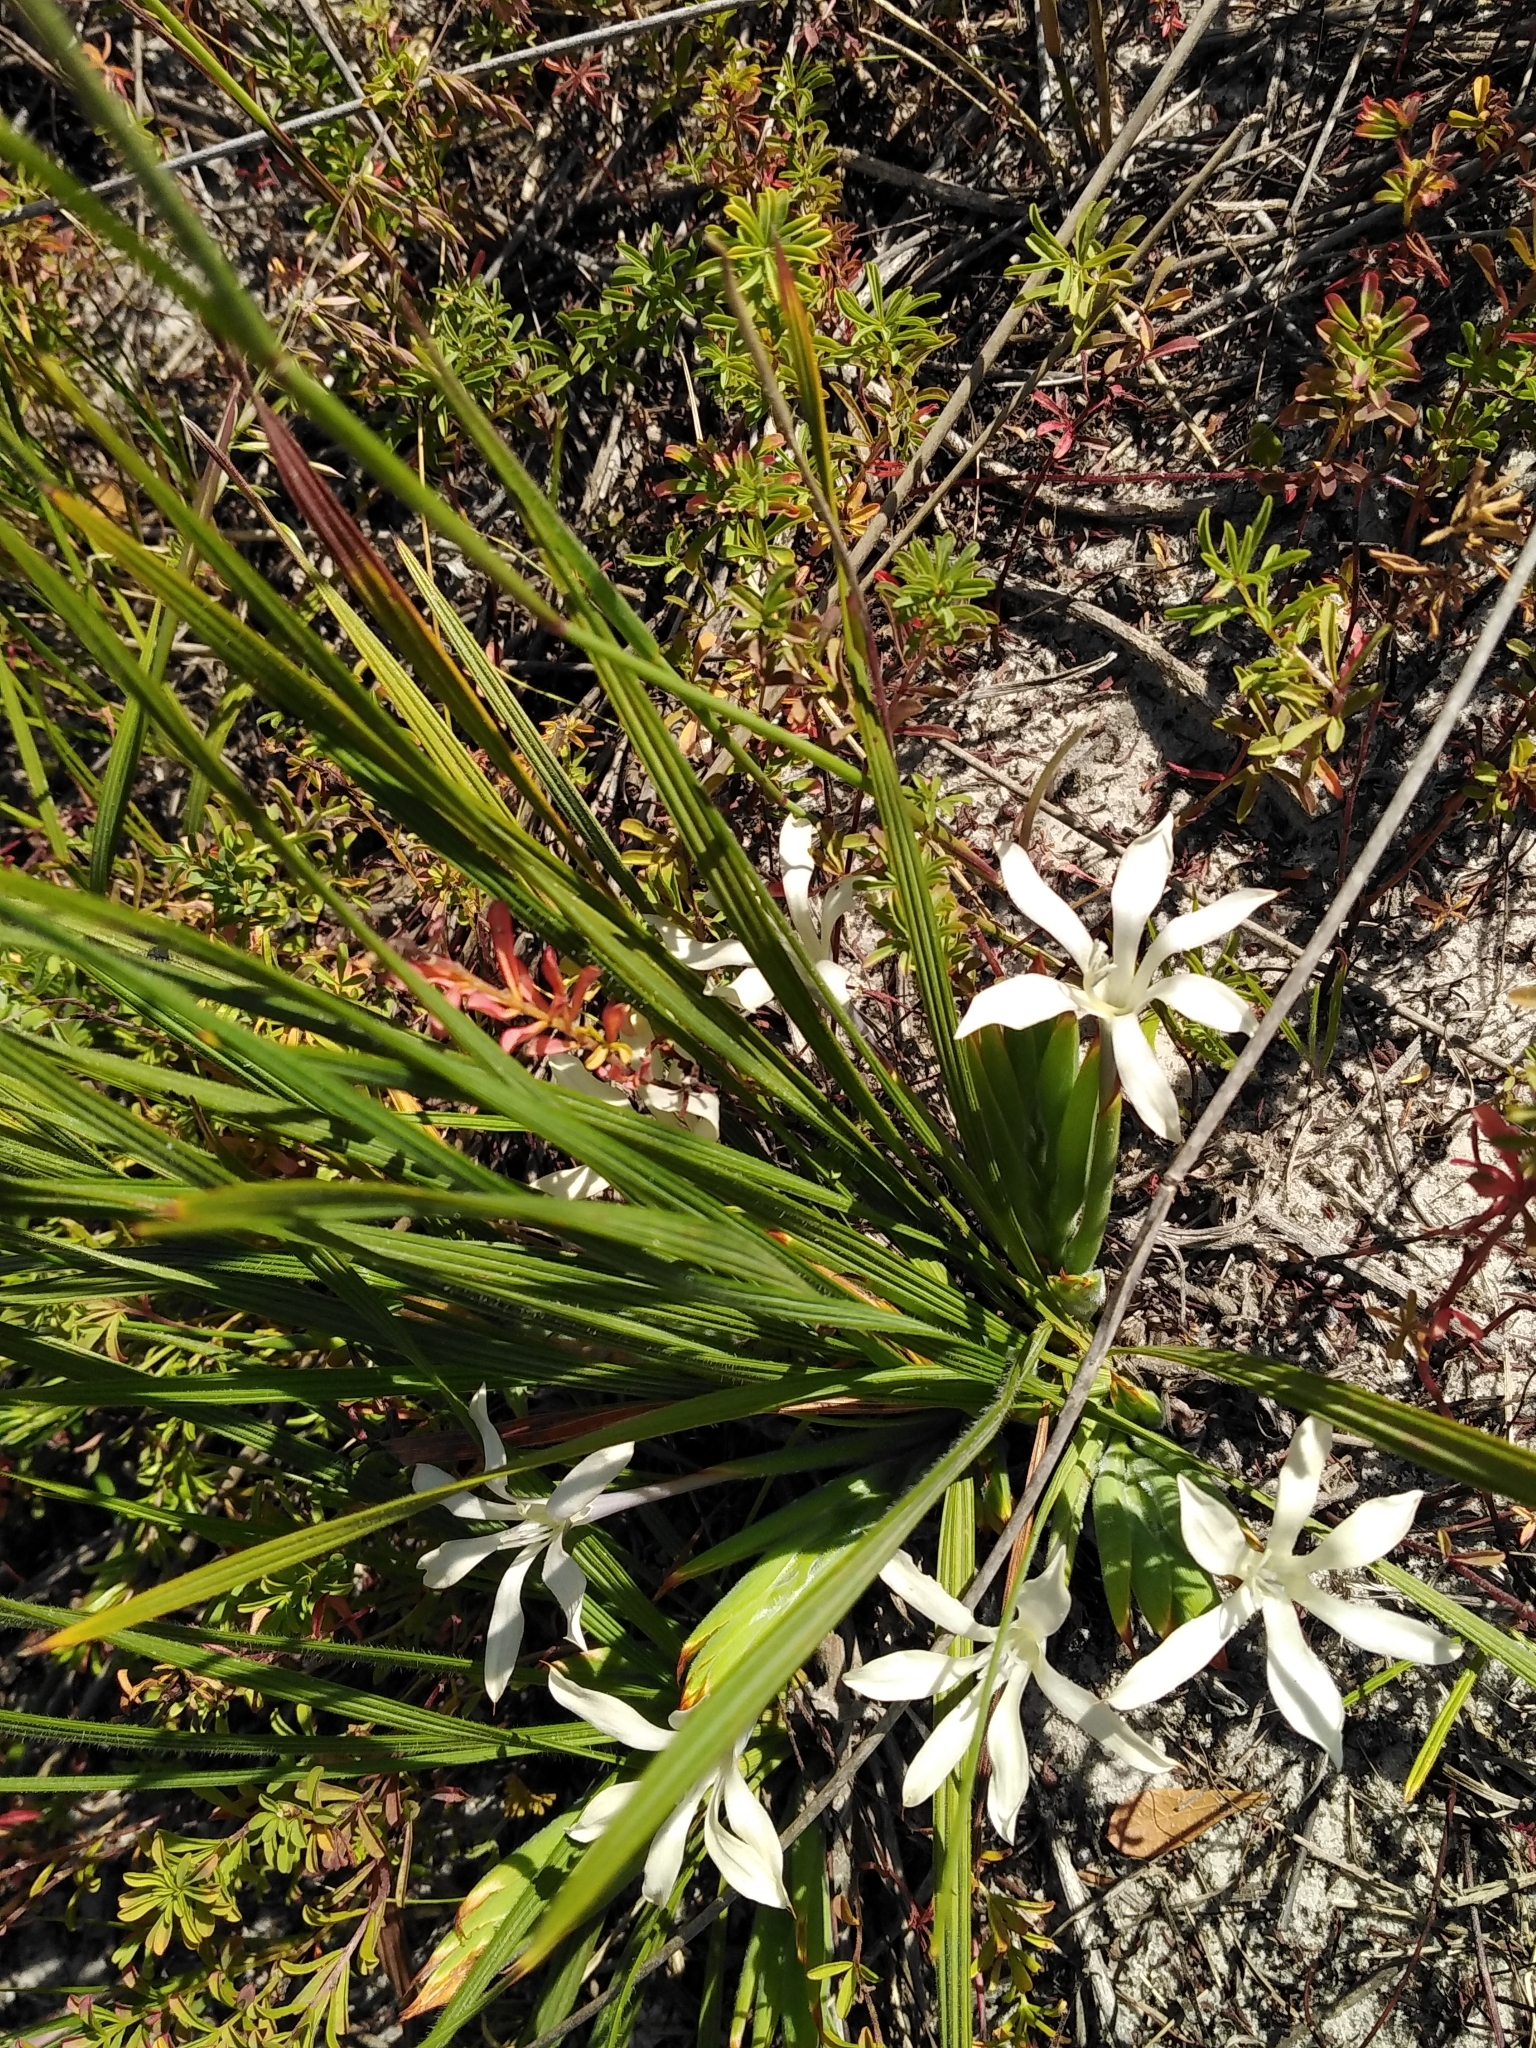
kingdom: Plantae
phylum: Tracheophyta
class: Liliopsida
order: Asparagales
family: Iridaceae
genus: Babiana
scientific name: Babiana tubiflora
